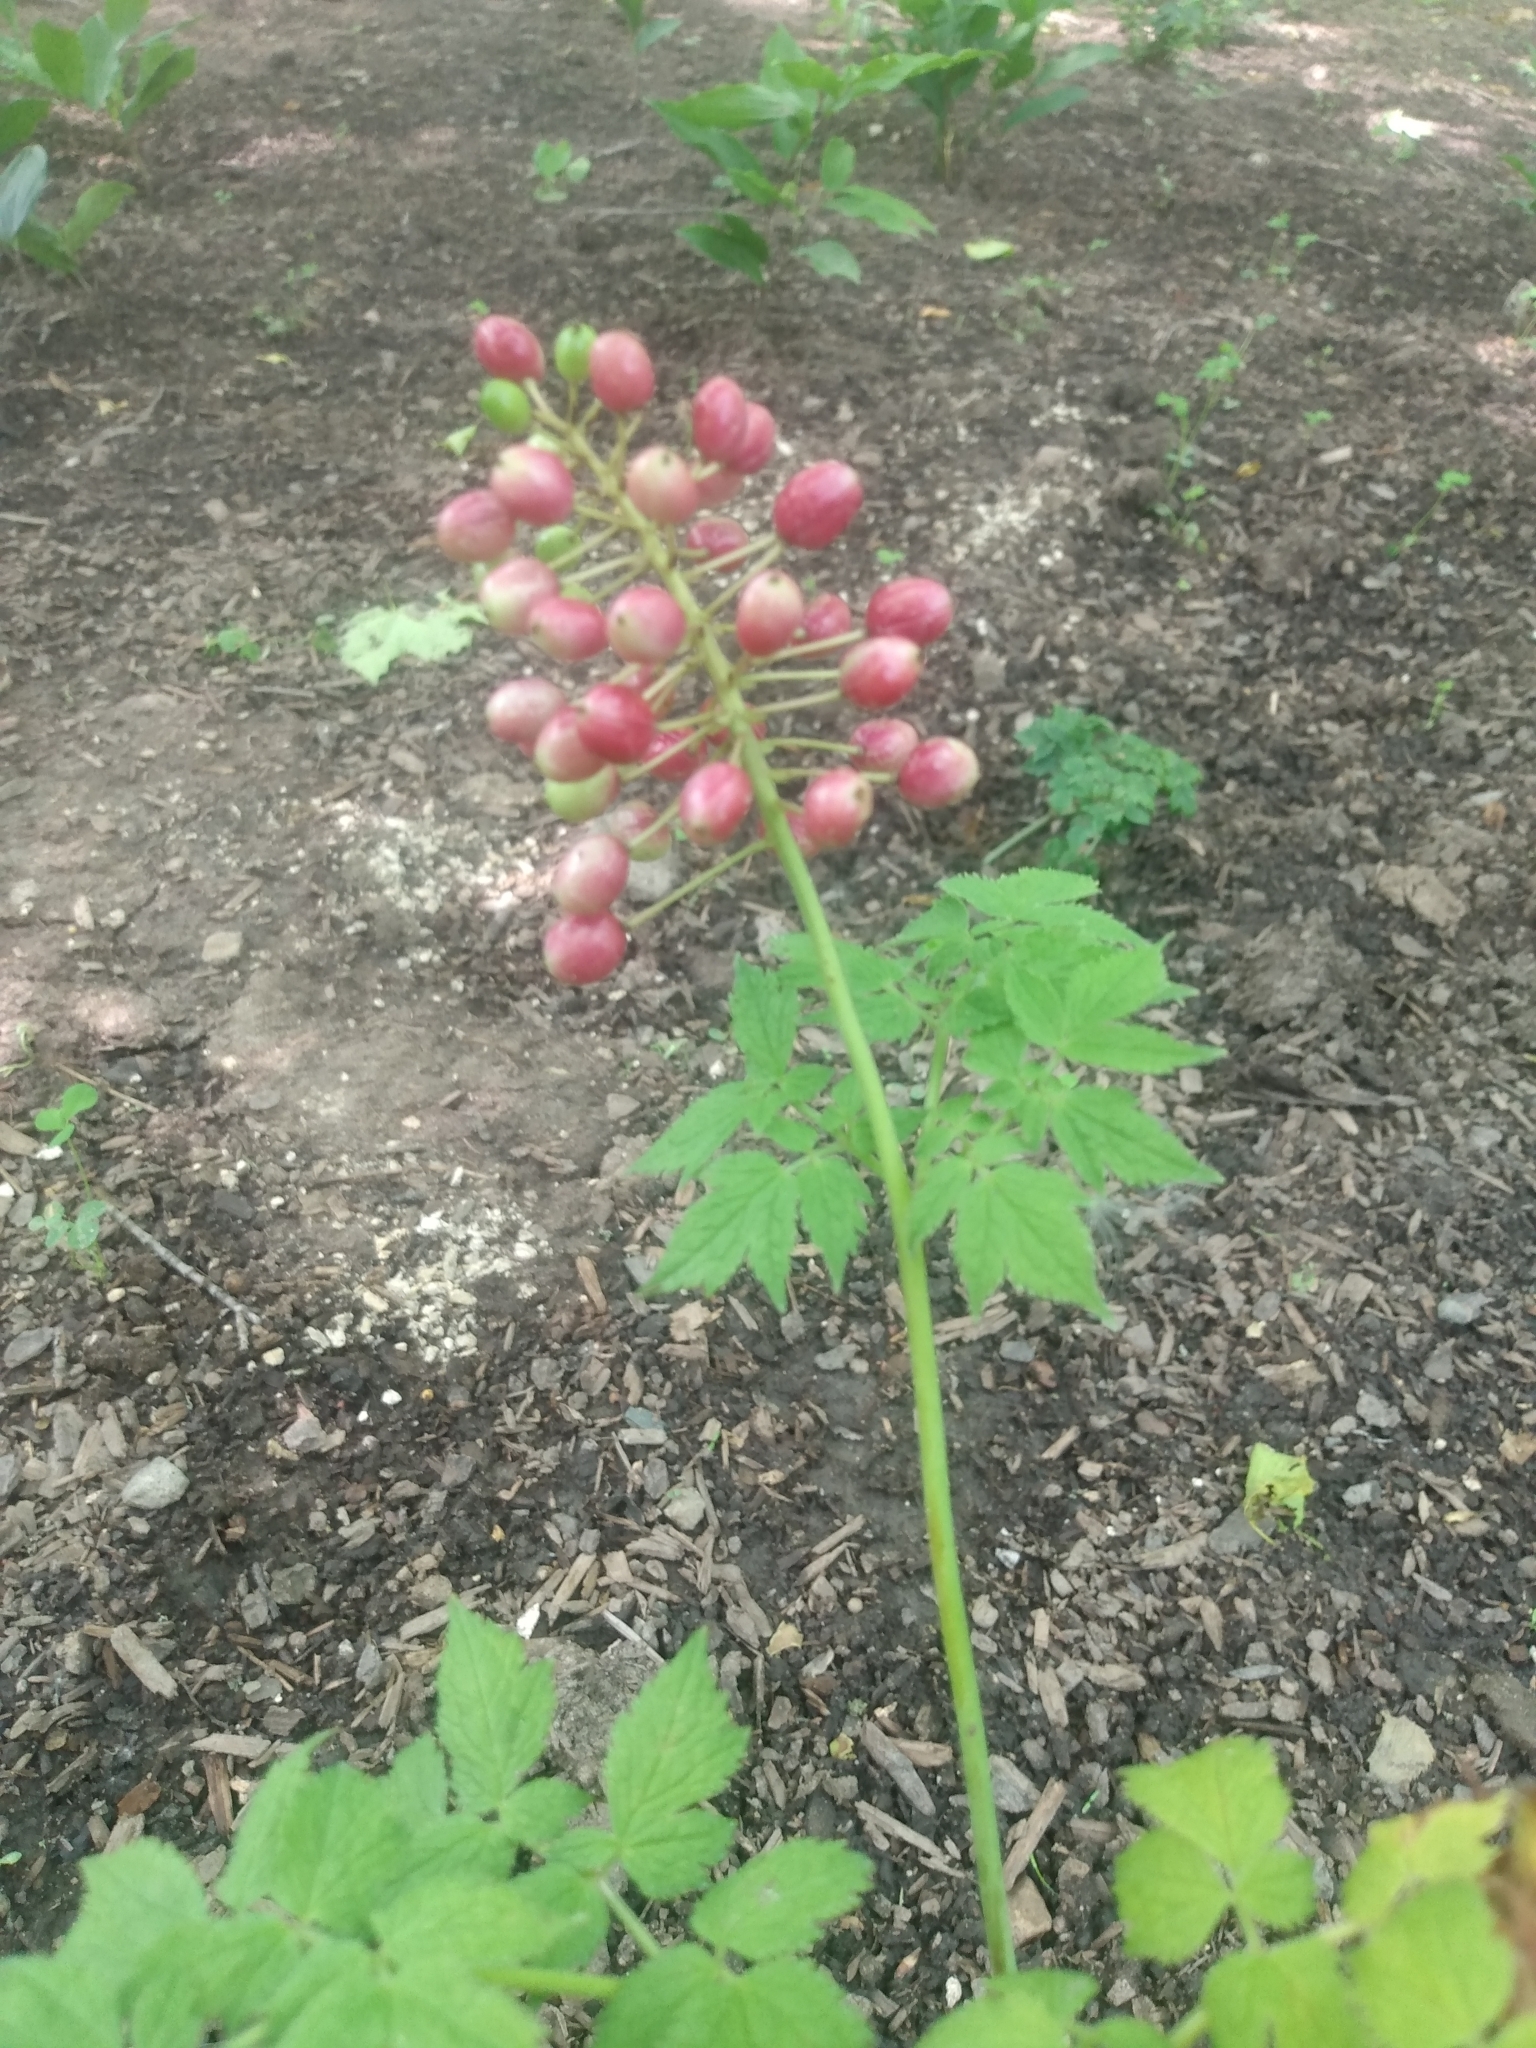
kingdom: Plantae
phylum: Tracheophyta
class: Magnoliopsida
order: Ranunculales
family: Ranunculaceae
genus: Actaea
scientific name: Actaea rubra
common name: Red baneberry
